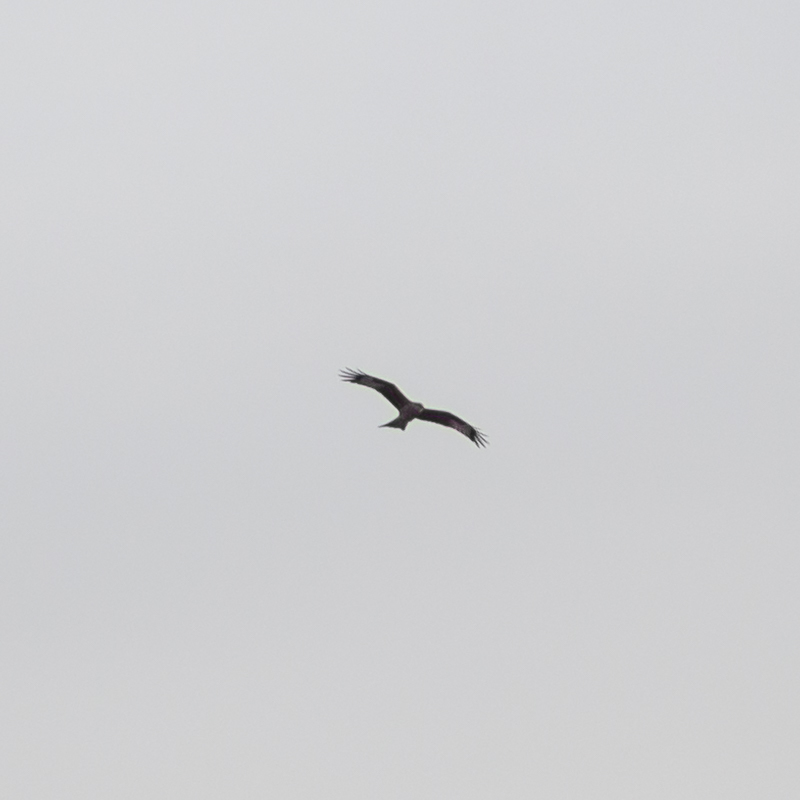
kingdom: Animalia
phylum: Chordata
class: Aves
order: Accipitriformes
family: Accipitridae
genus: Milvus
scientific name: Milvus milvus
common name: Red kite
